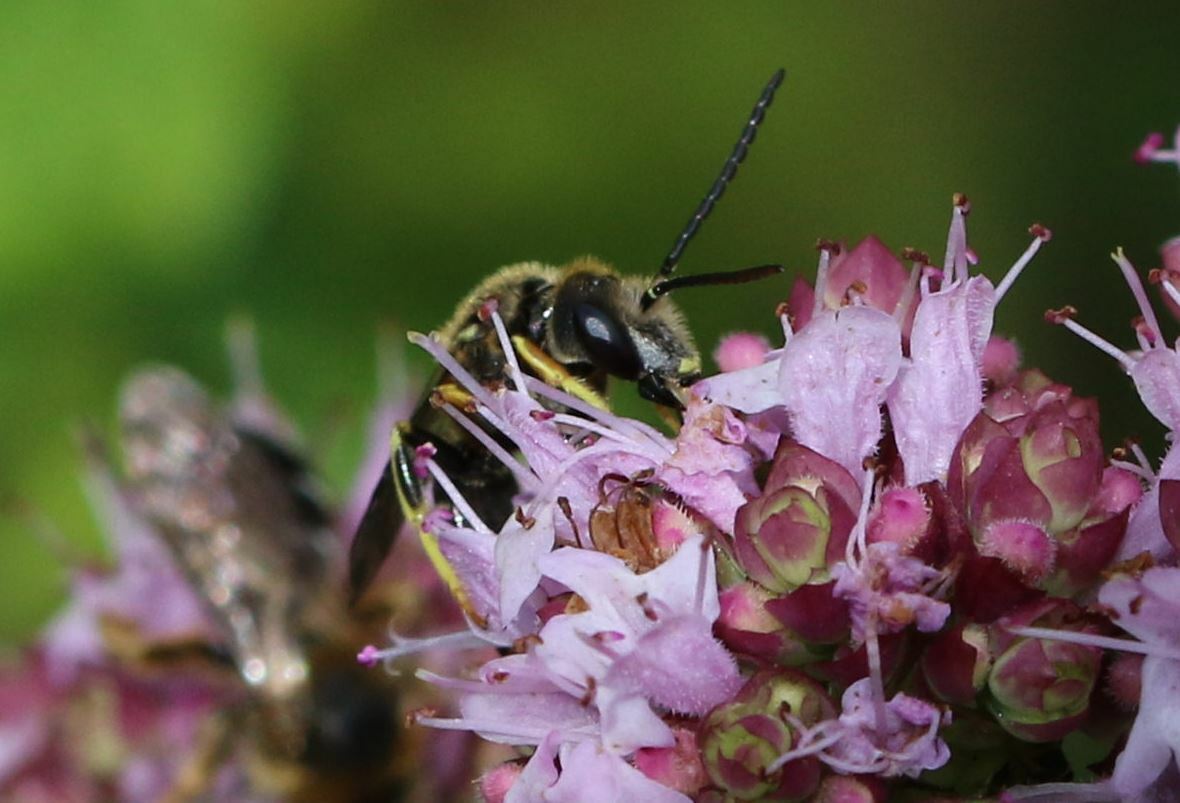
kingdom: Animalia
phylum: Arthropoda
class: Insecta
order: Hymenoptera
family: Halictidae
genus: Halictus
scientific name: Halictus langobardicus
